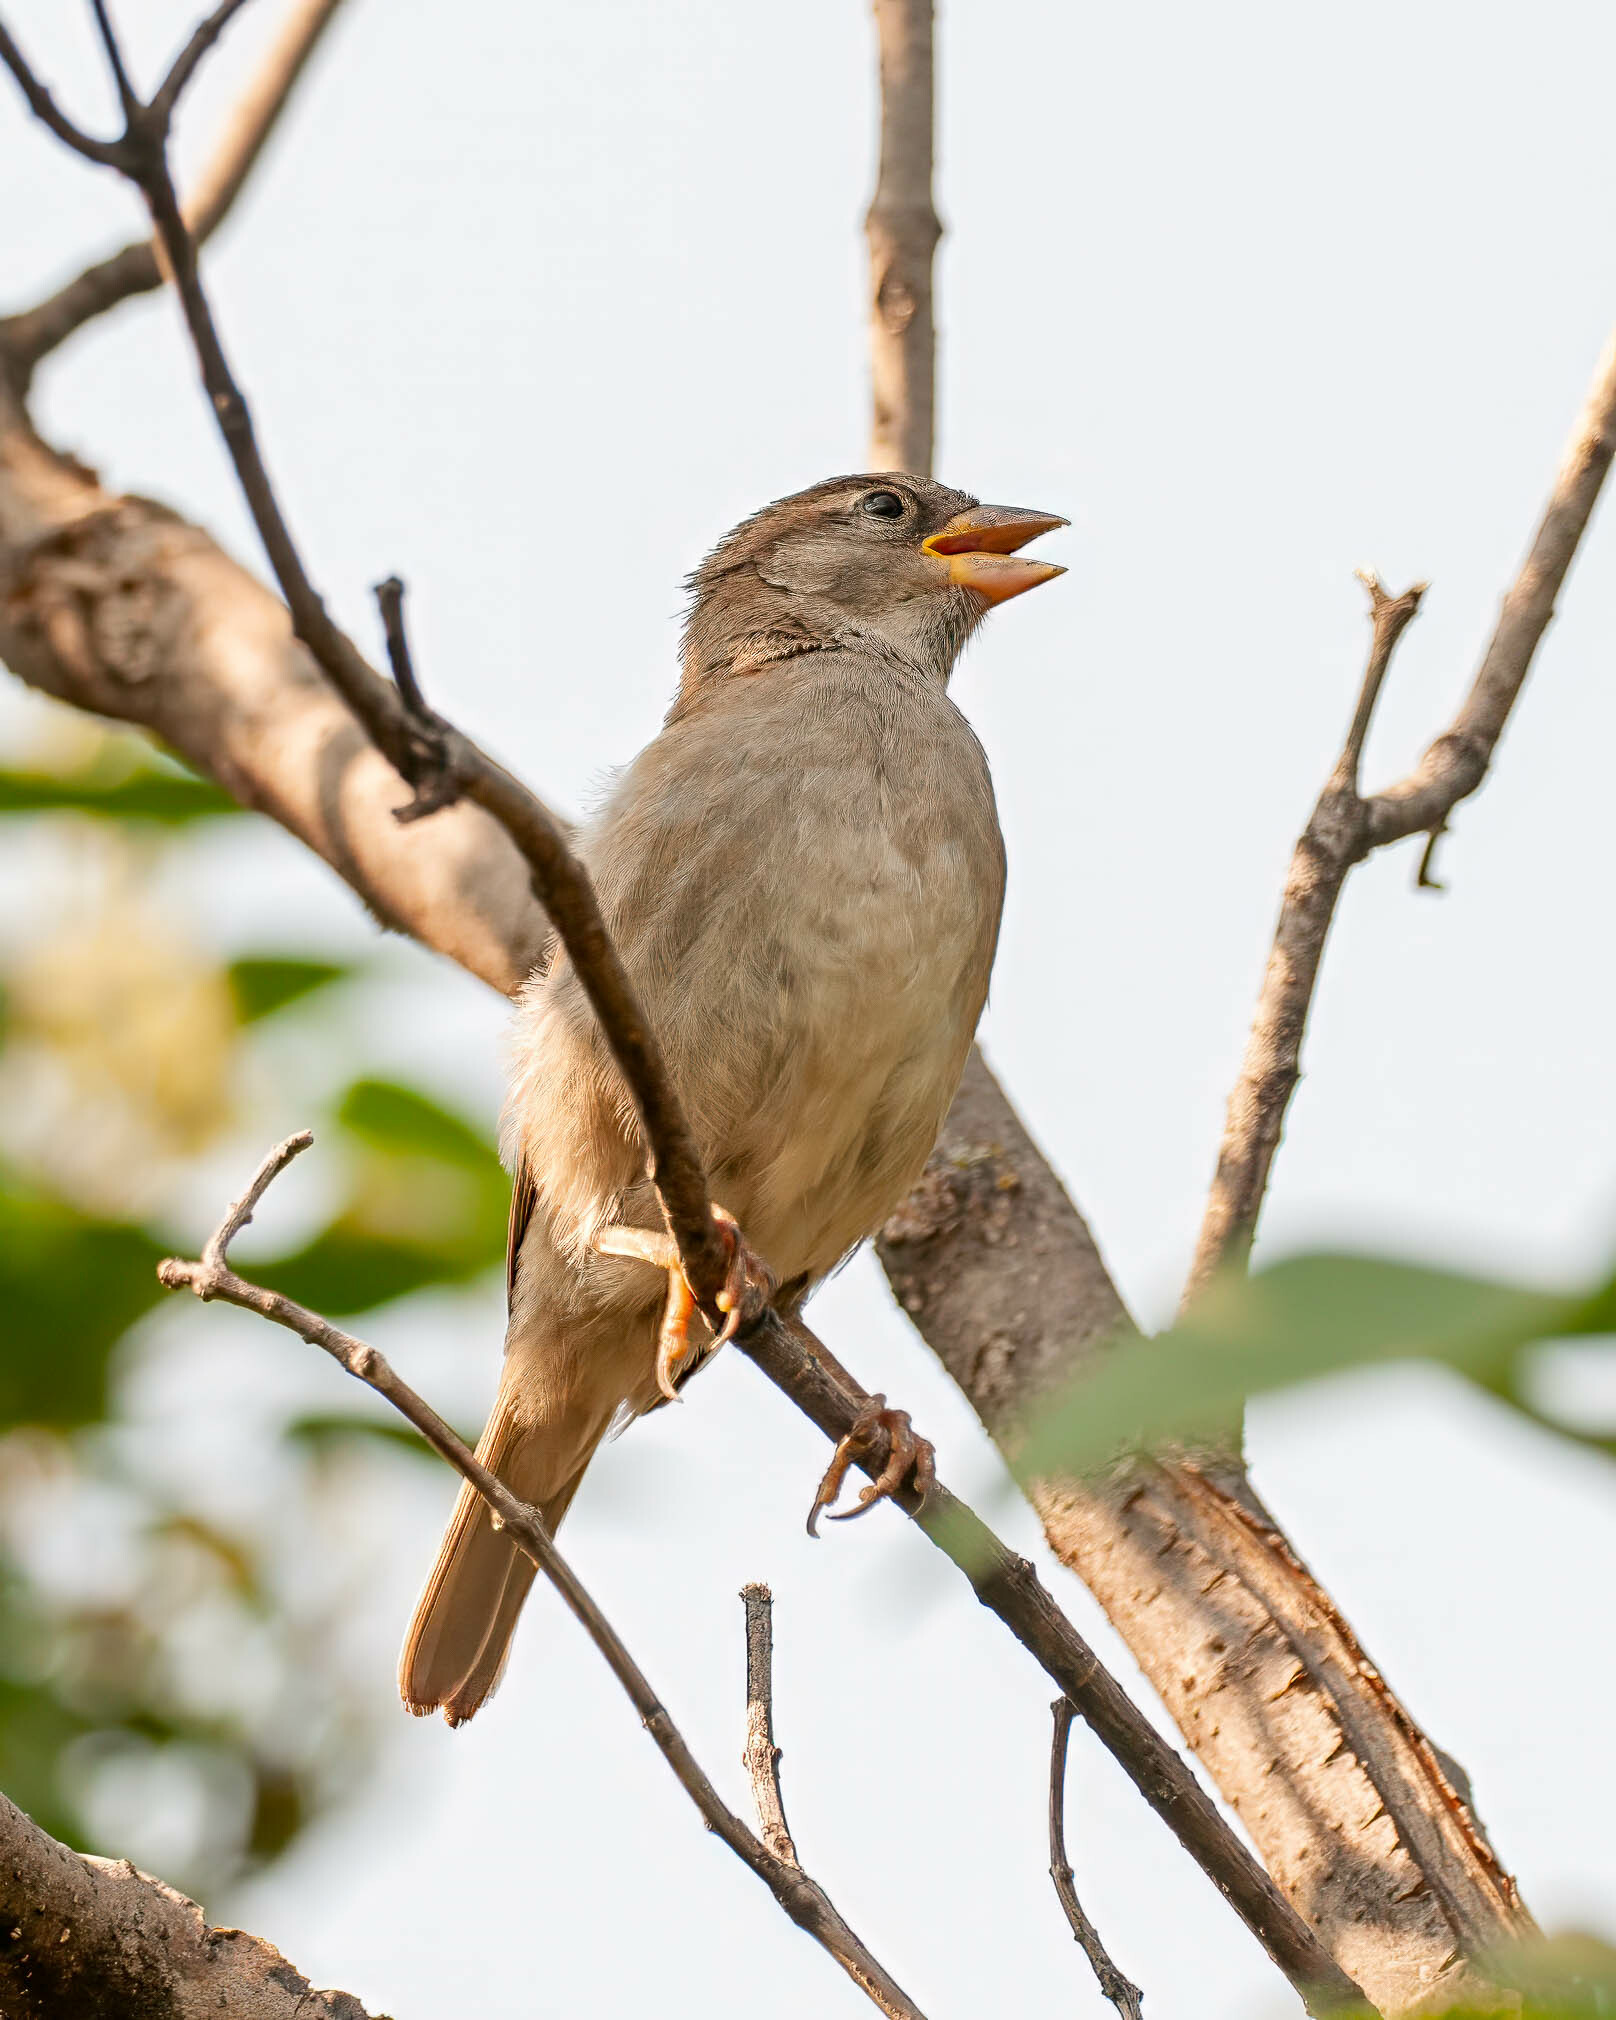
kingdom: Animalia
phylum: Chordata
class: Aves
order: Passeriformes
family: Passeridae
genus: Passer
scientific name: Passer domesticus
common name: House sparrow
